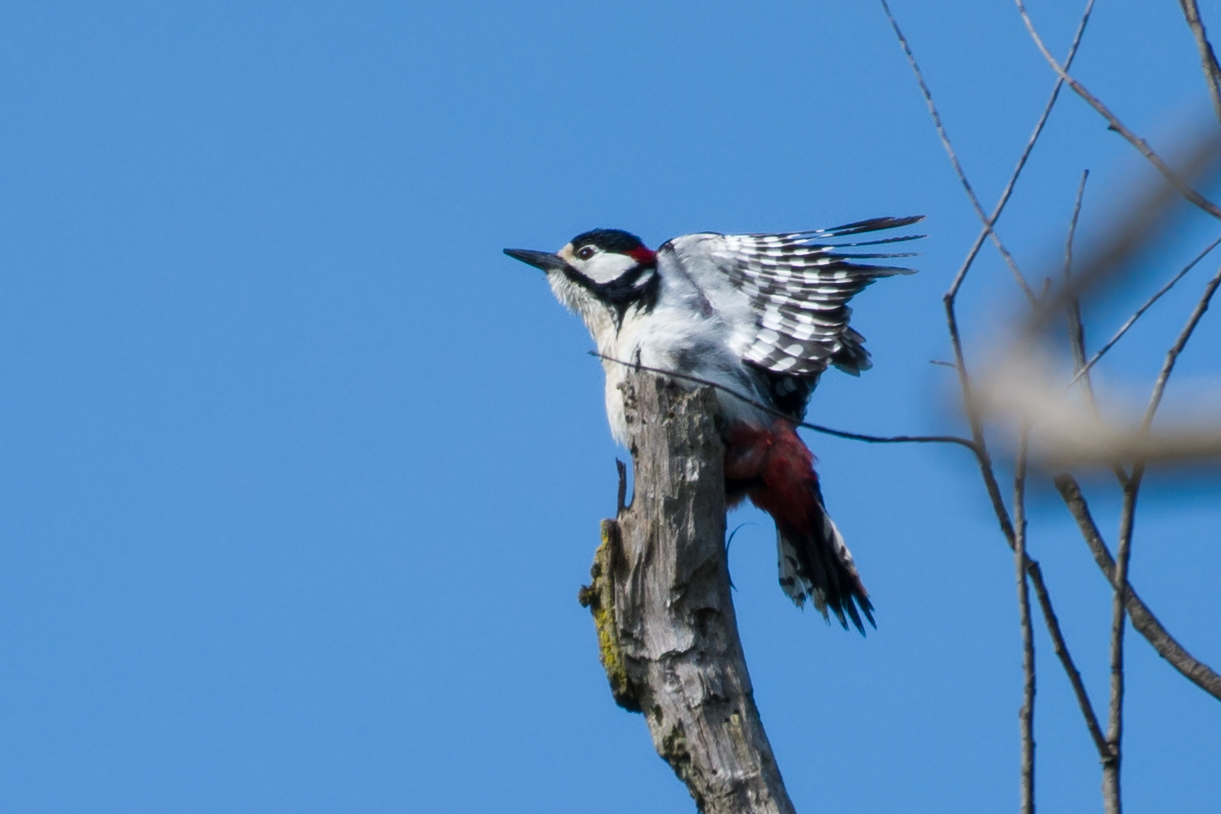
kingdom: Animalia
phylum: Chordata
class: Aves
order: Piciformes
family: Picidae
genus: Dendrocopos
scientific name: Dendrocopos major
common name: Great spotted woodpecker
